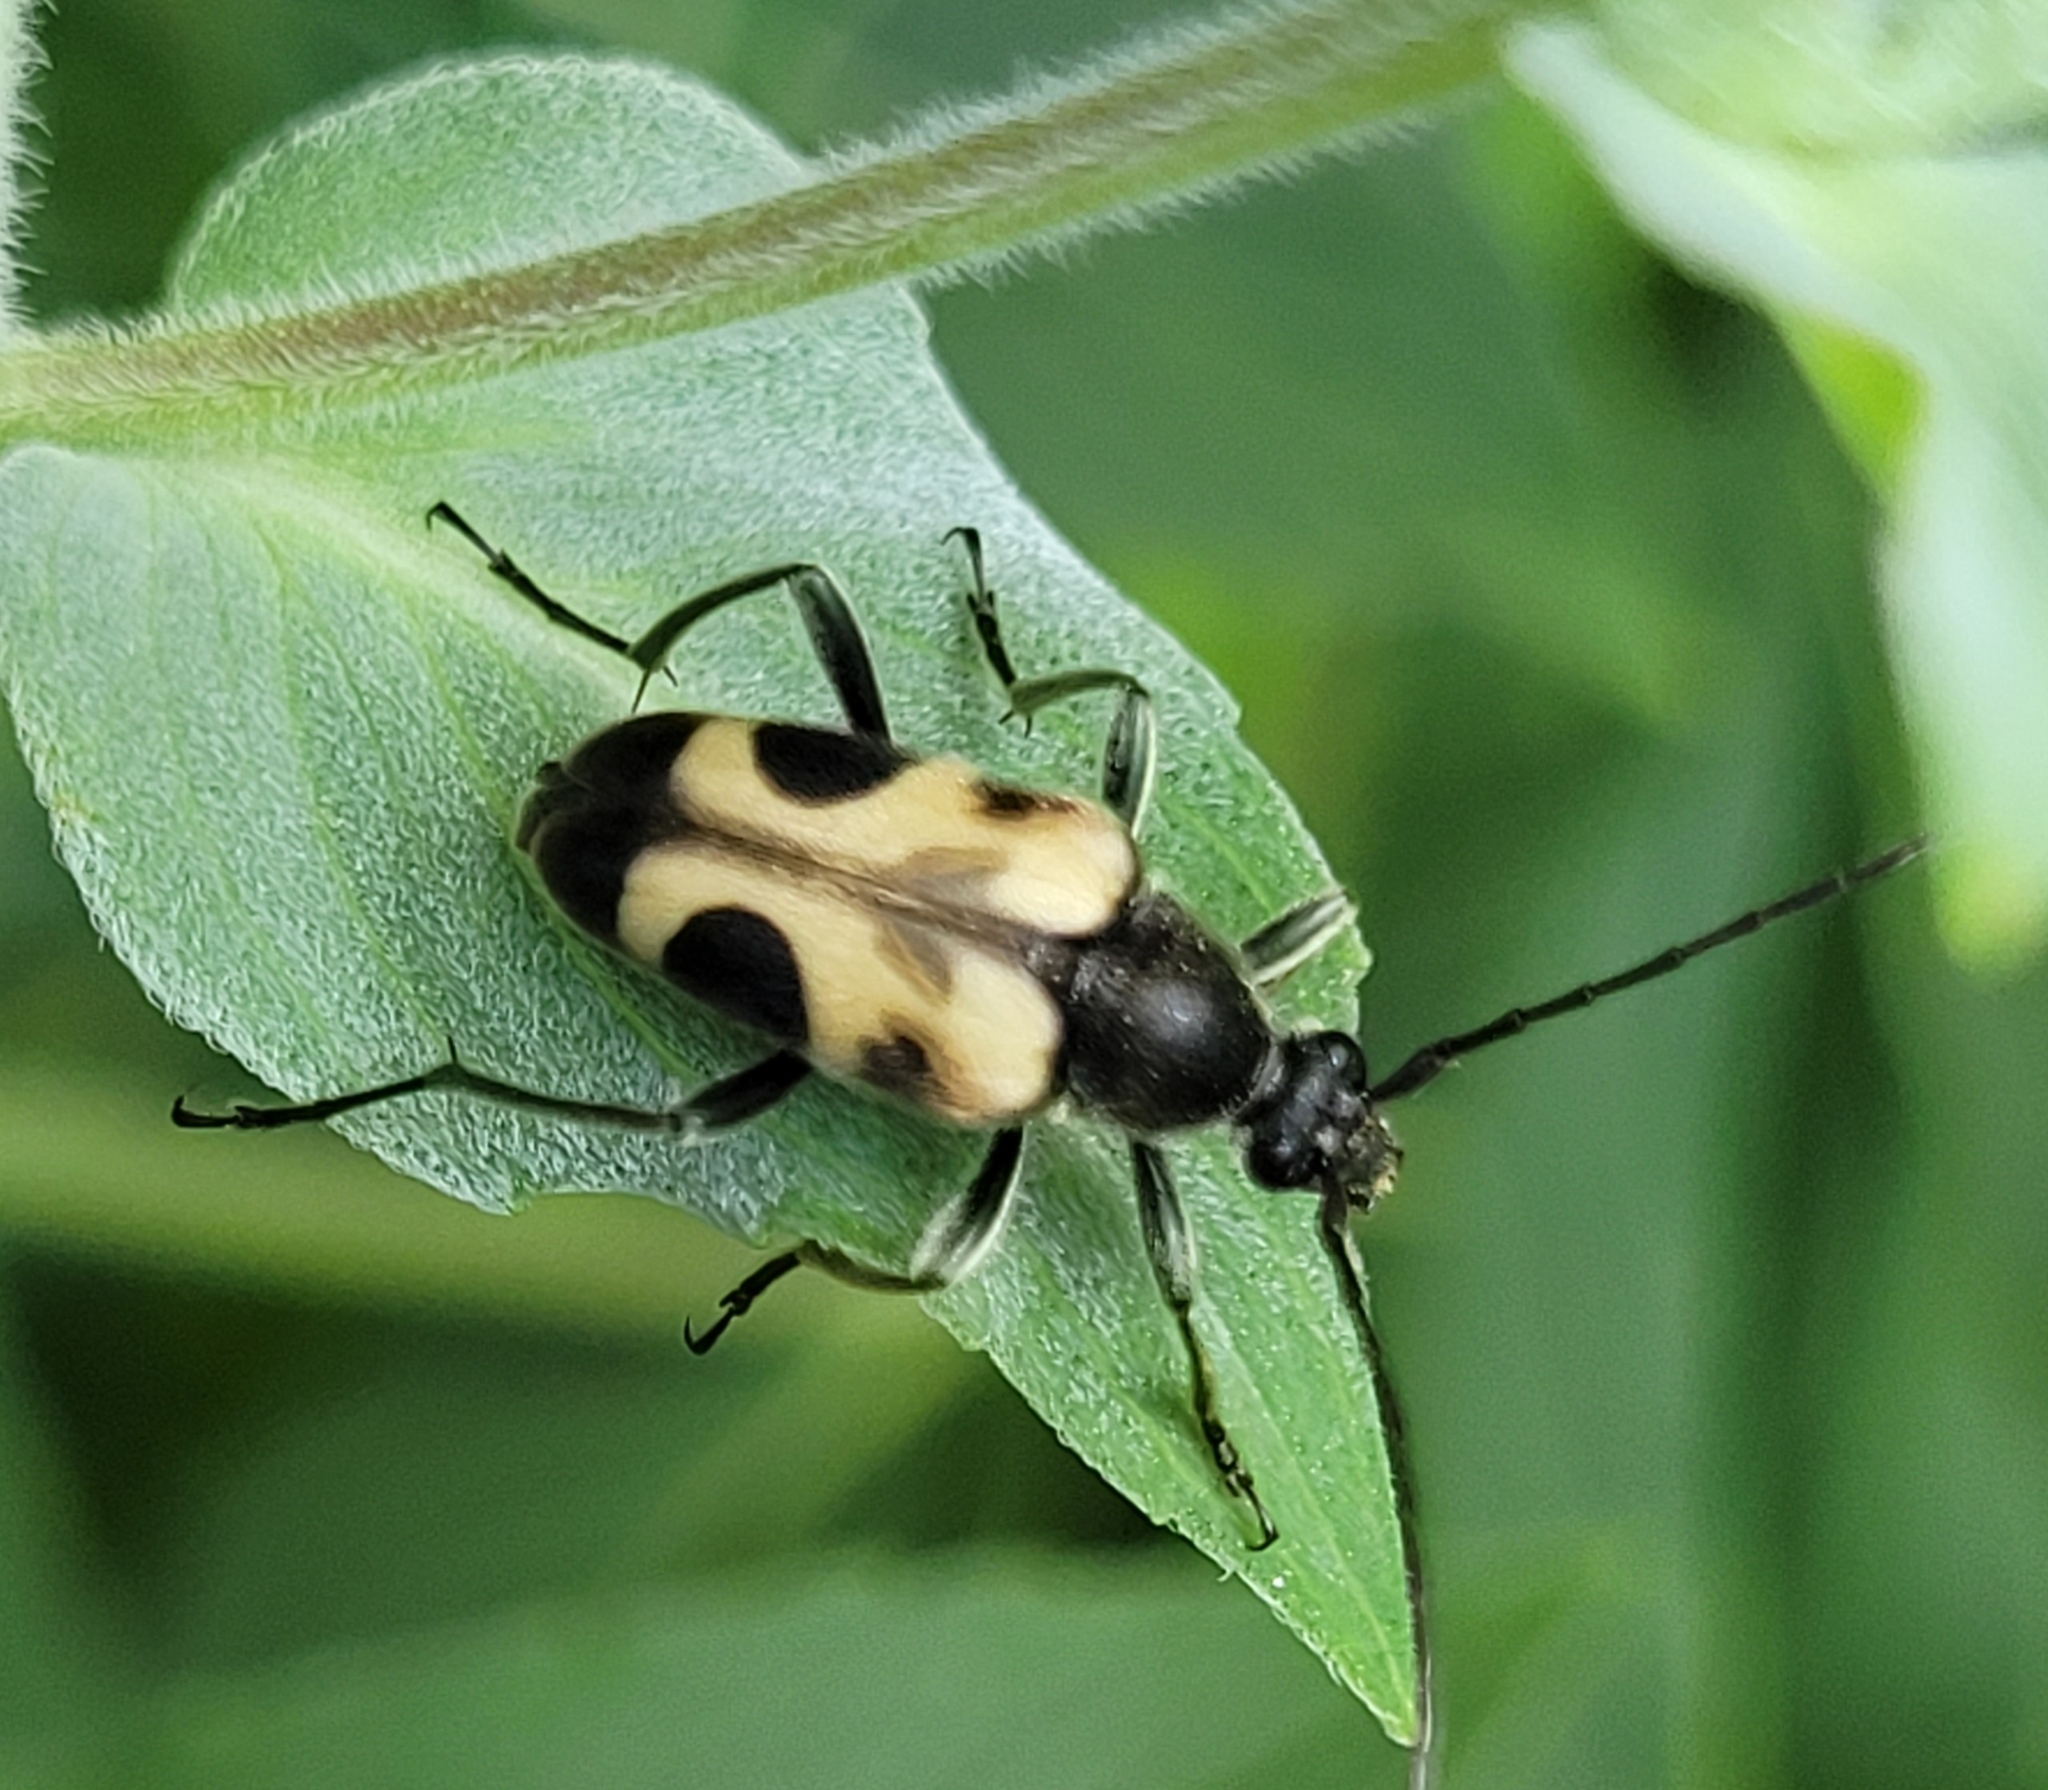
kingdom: Animalia
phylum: Arthropoda
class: Insecta
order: Coleoptera
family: Cerambycidae
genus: Judolia
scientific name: Judolia cordifera
